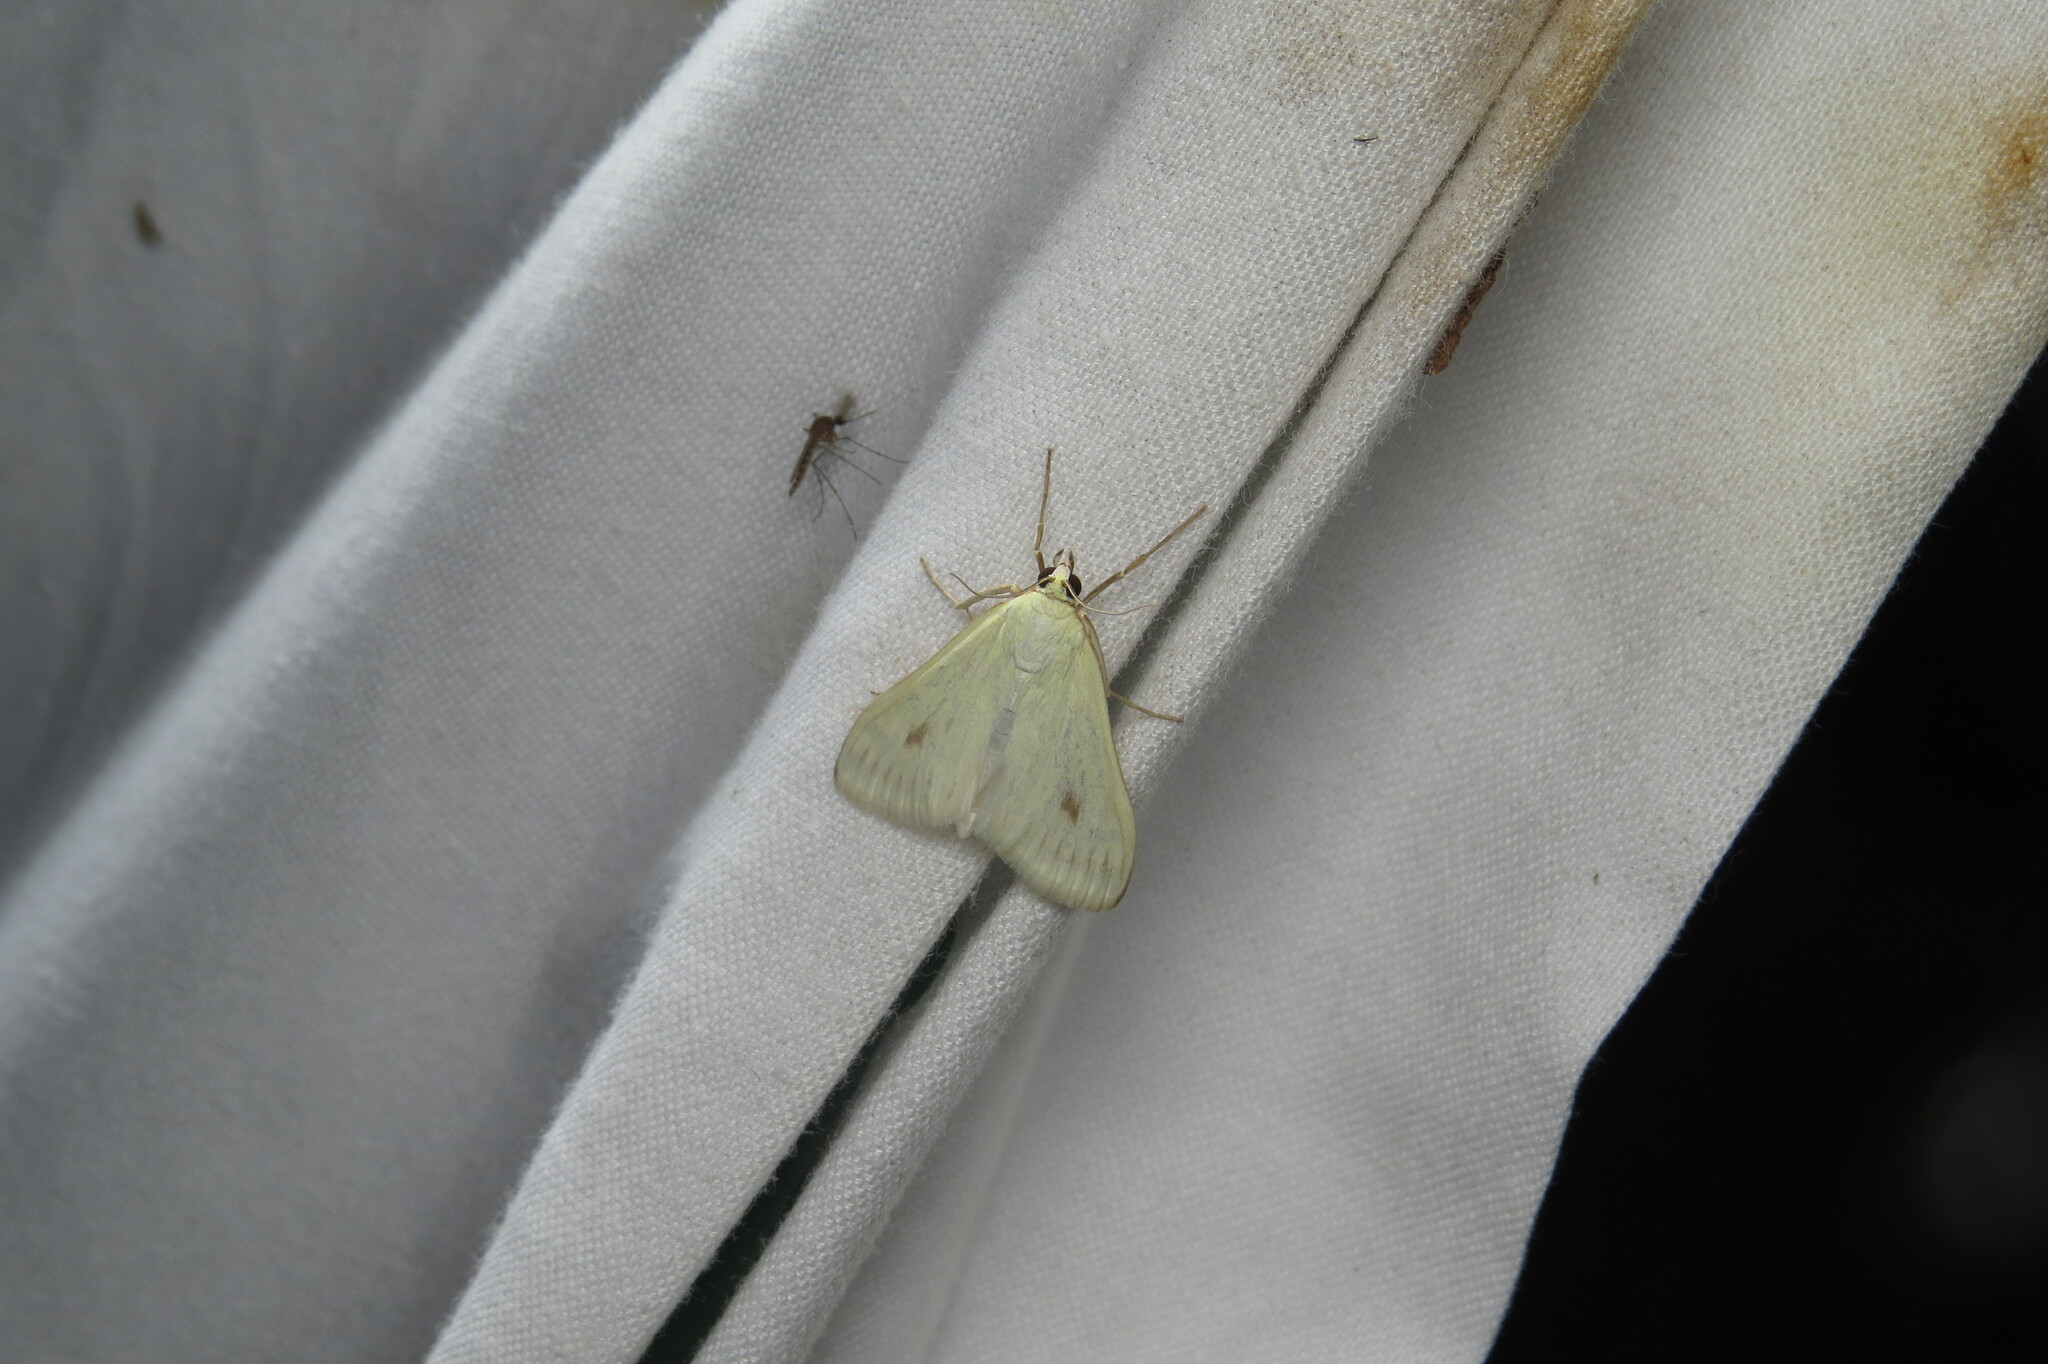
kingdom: Animalia
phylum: Arthropoda
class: Insecta
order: Lepidoptera
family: Crambidae
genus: Sitochroa
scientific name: Sitochroa palealis
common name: Greenish-yellow sitochroa moth
